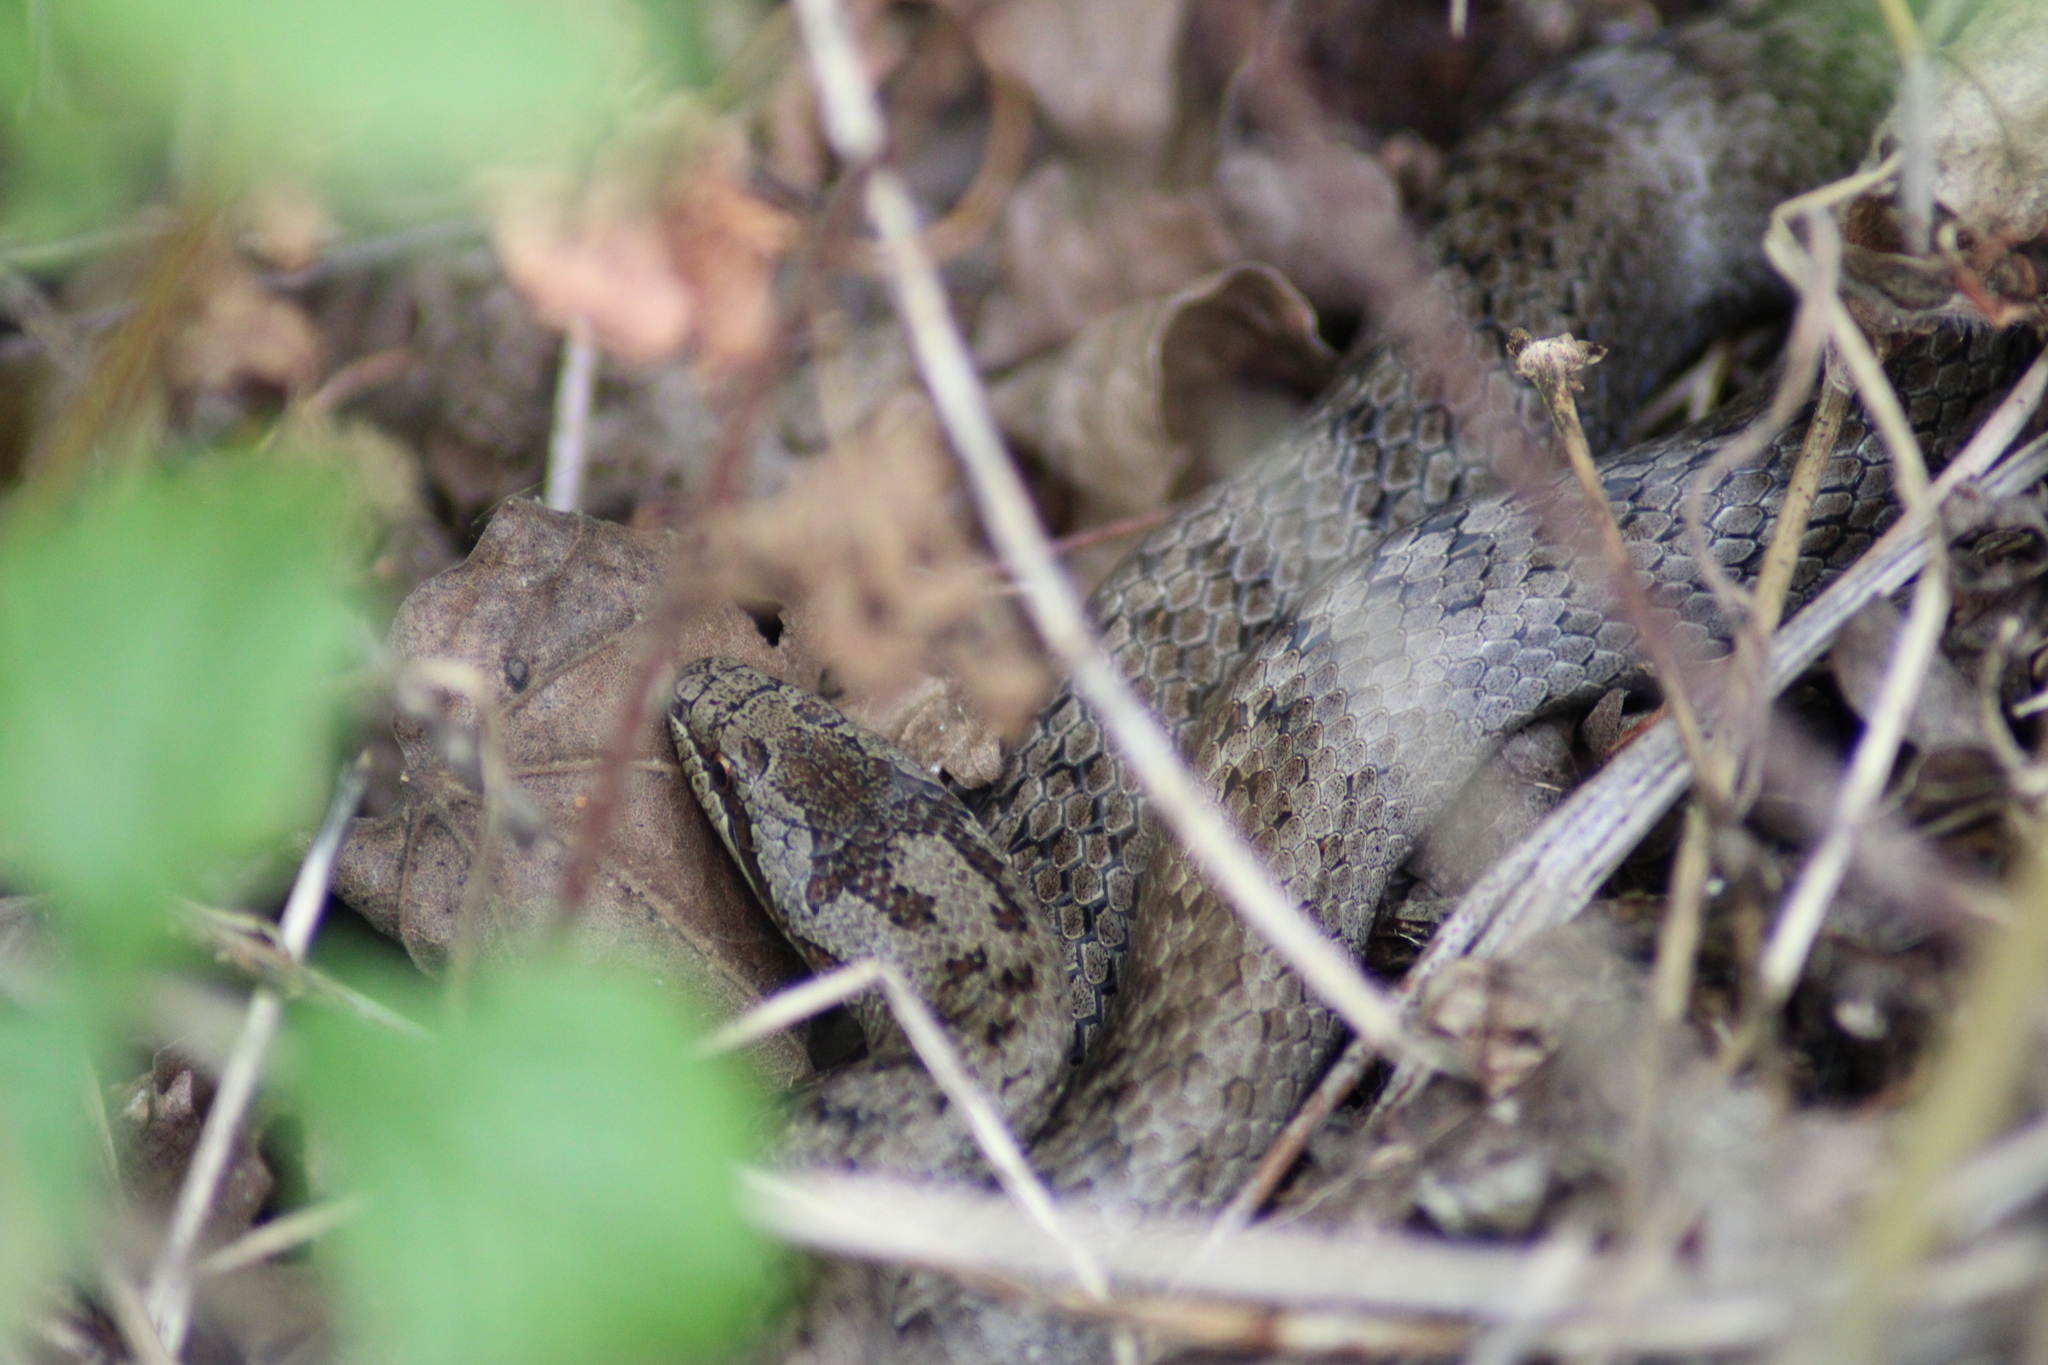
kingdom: Animalia
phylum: Chordata
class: Squamata
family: Colubridae
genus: Coronella
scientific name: Coronella austriaca
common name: Smooth snake
